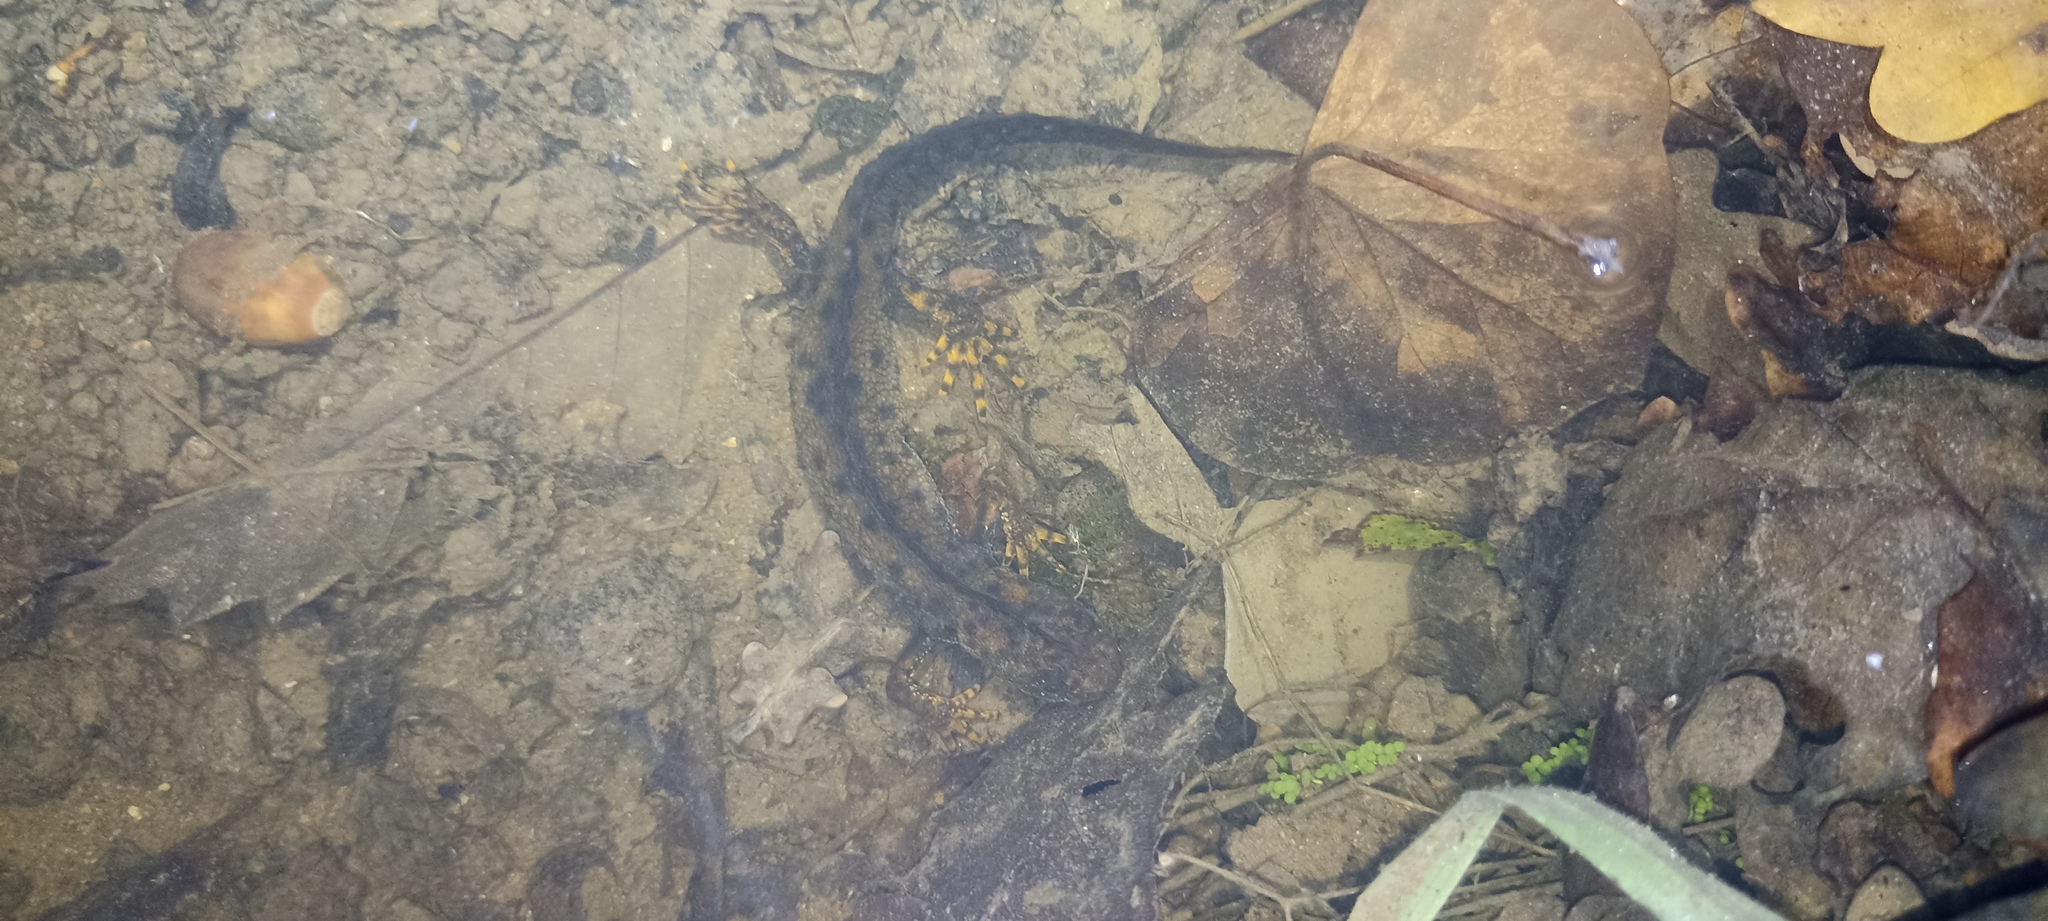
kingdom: Animalia
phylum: Chordata
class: Amphibia
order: Caudata
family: Salamandridae
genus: Triturus
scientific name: Triturus cristatus
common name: Crested newt
